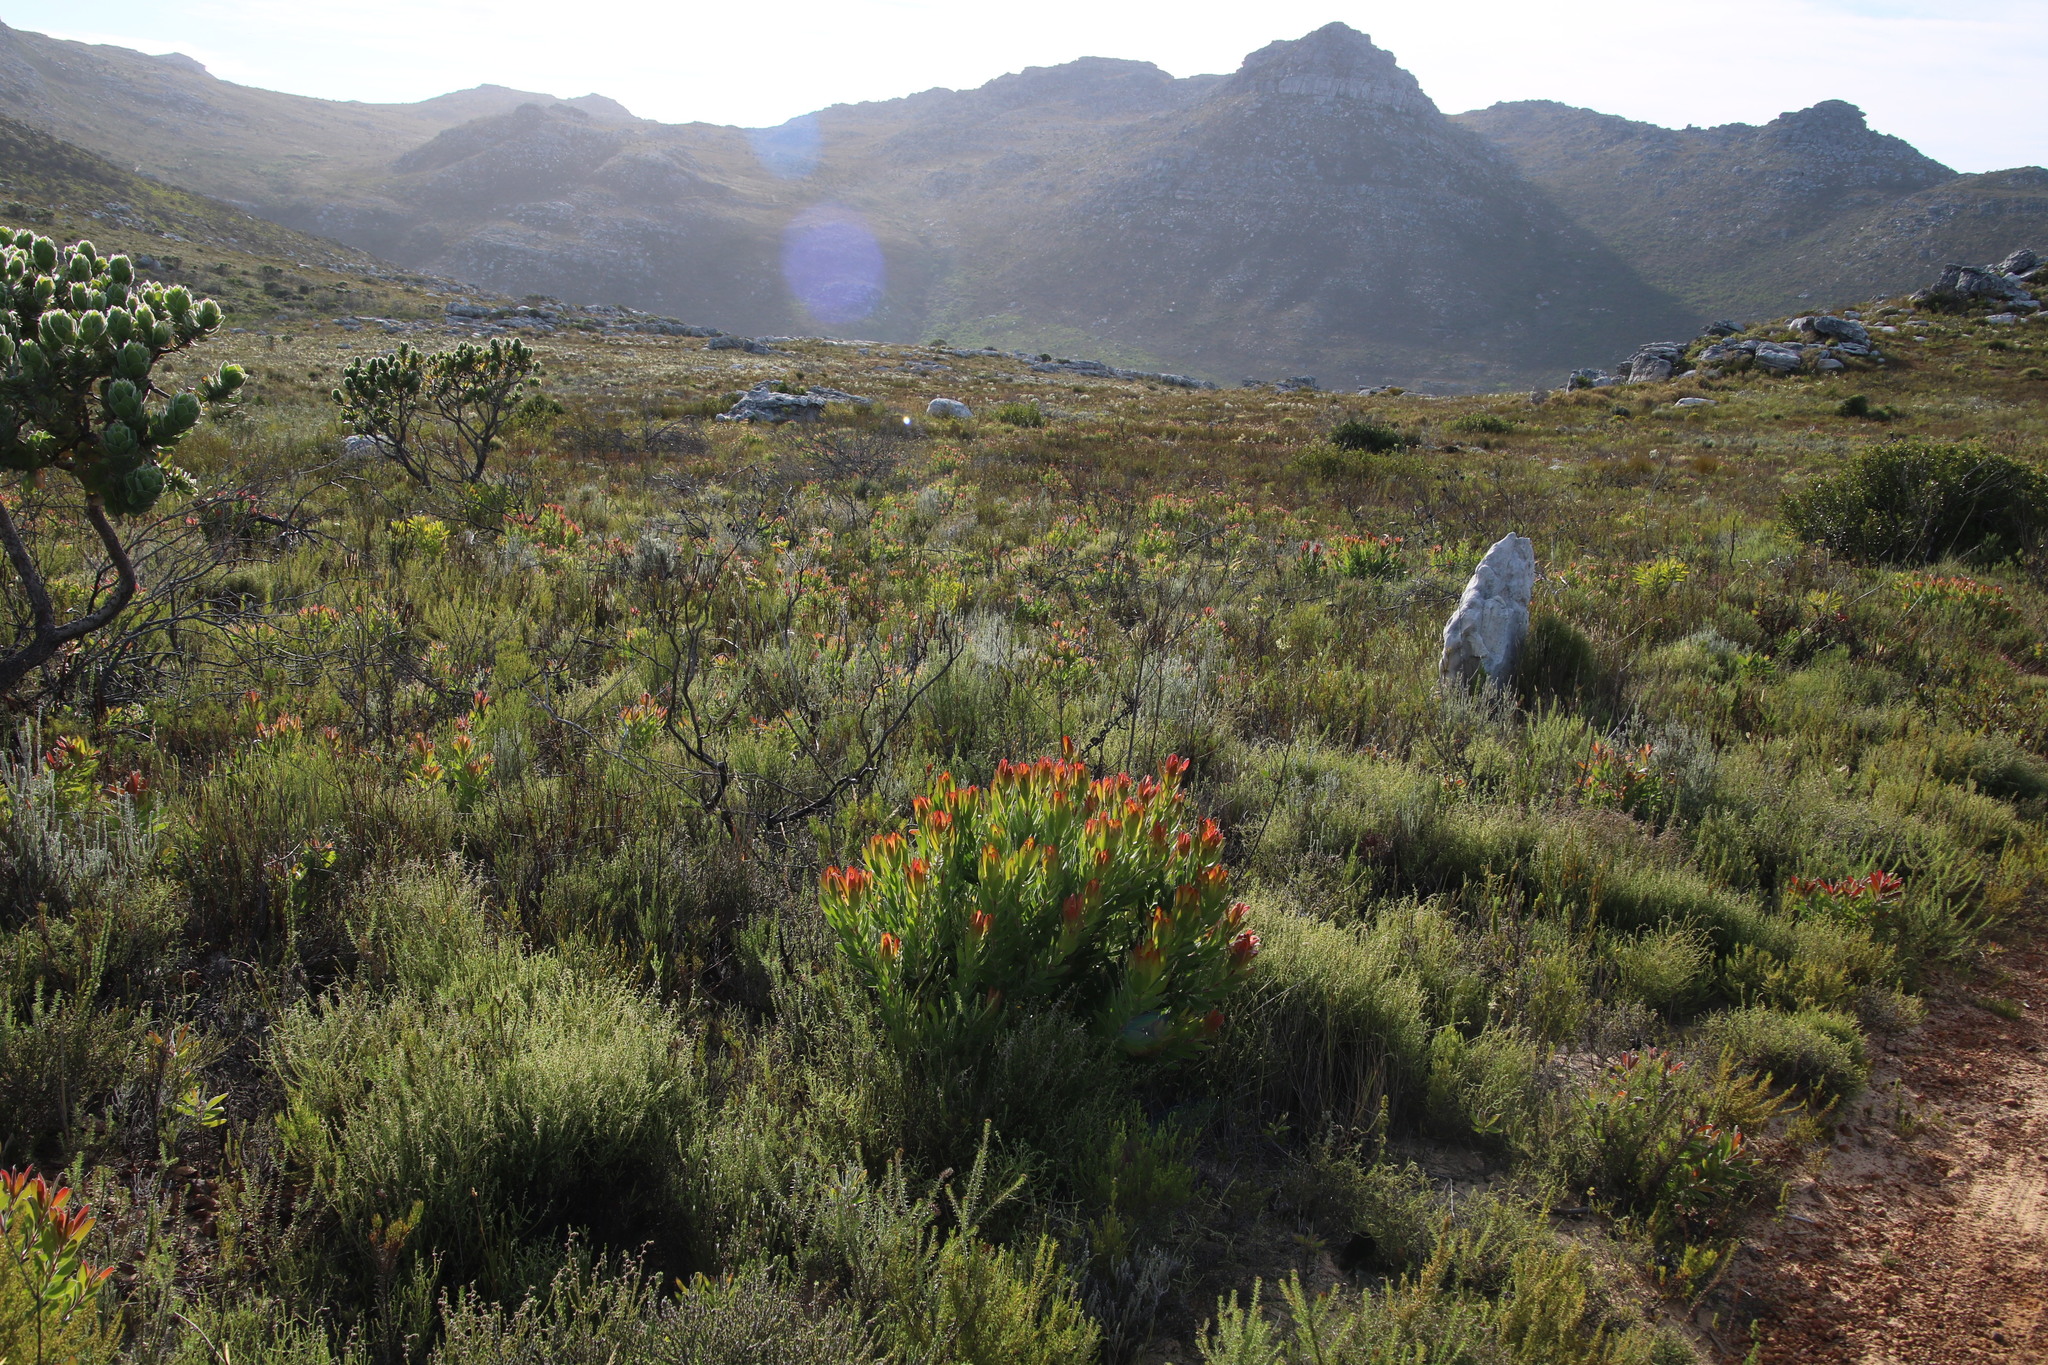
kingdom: Plantae
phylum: Tracheophyta
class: Magnoliopsida
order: Proteales
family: Proteaceae
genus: Leucadendron
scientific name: Leucadendron laureolum
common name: Golden sunshinebush
